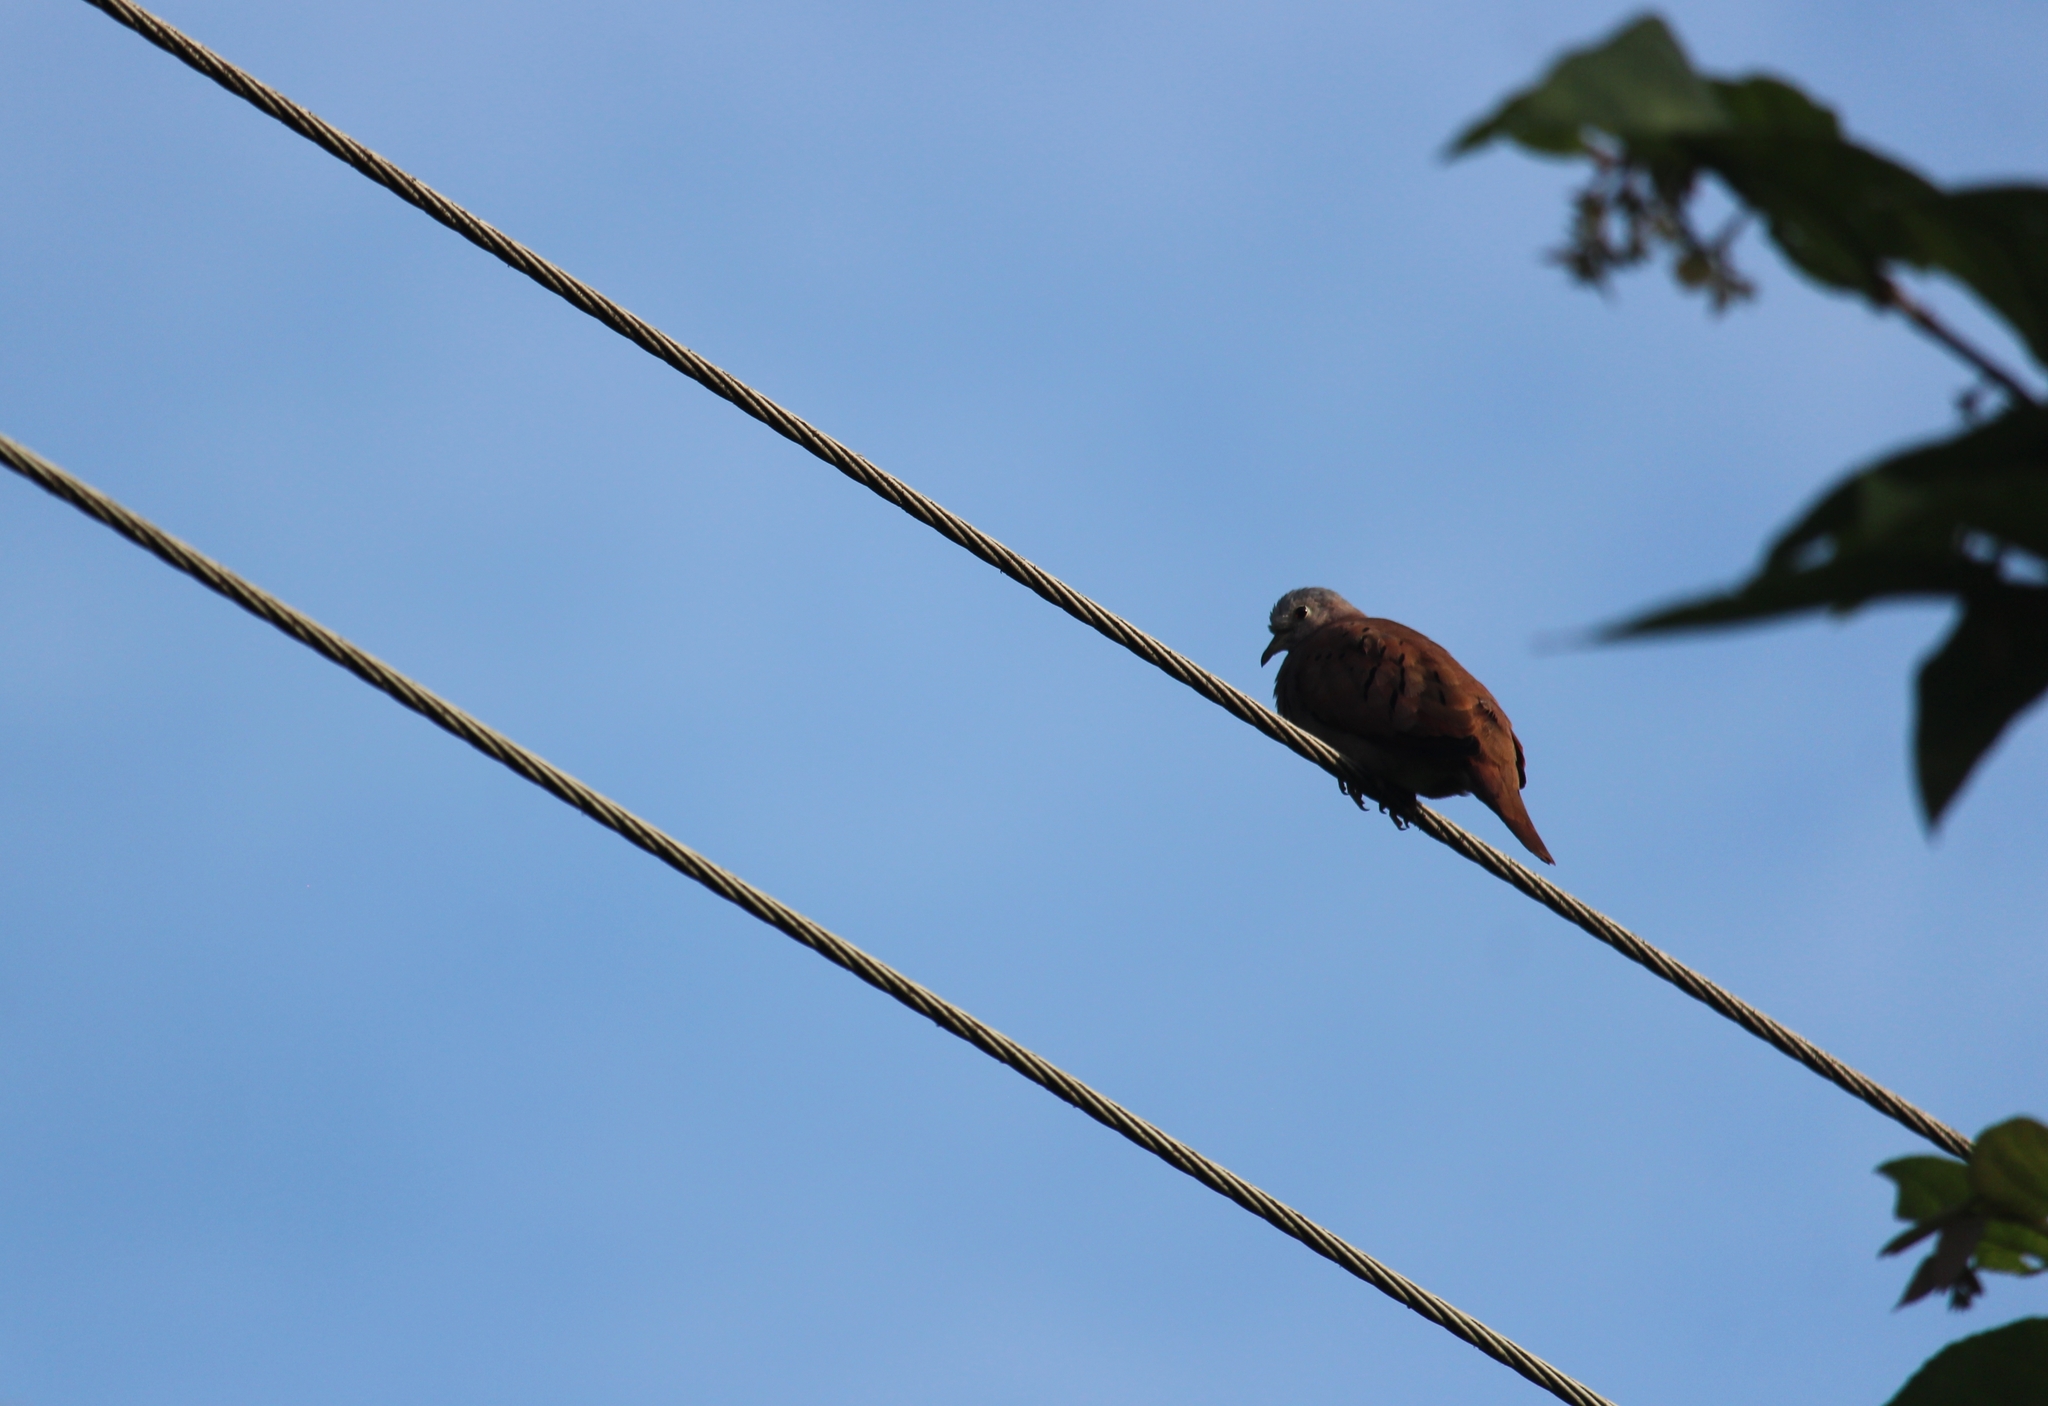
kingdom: Animalia
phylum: Chordata
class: Aves
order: Columbiformes
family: Columbidae
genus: Columbina
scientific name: Columbina talpacoti
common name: Ruddy ground dove
